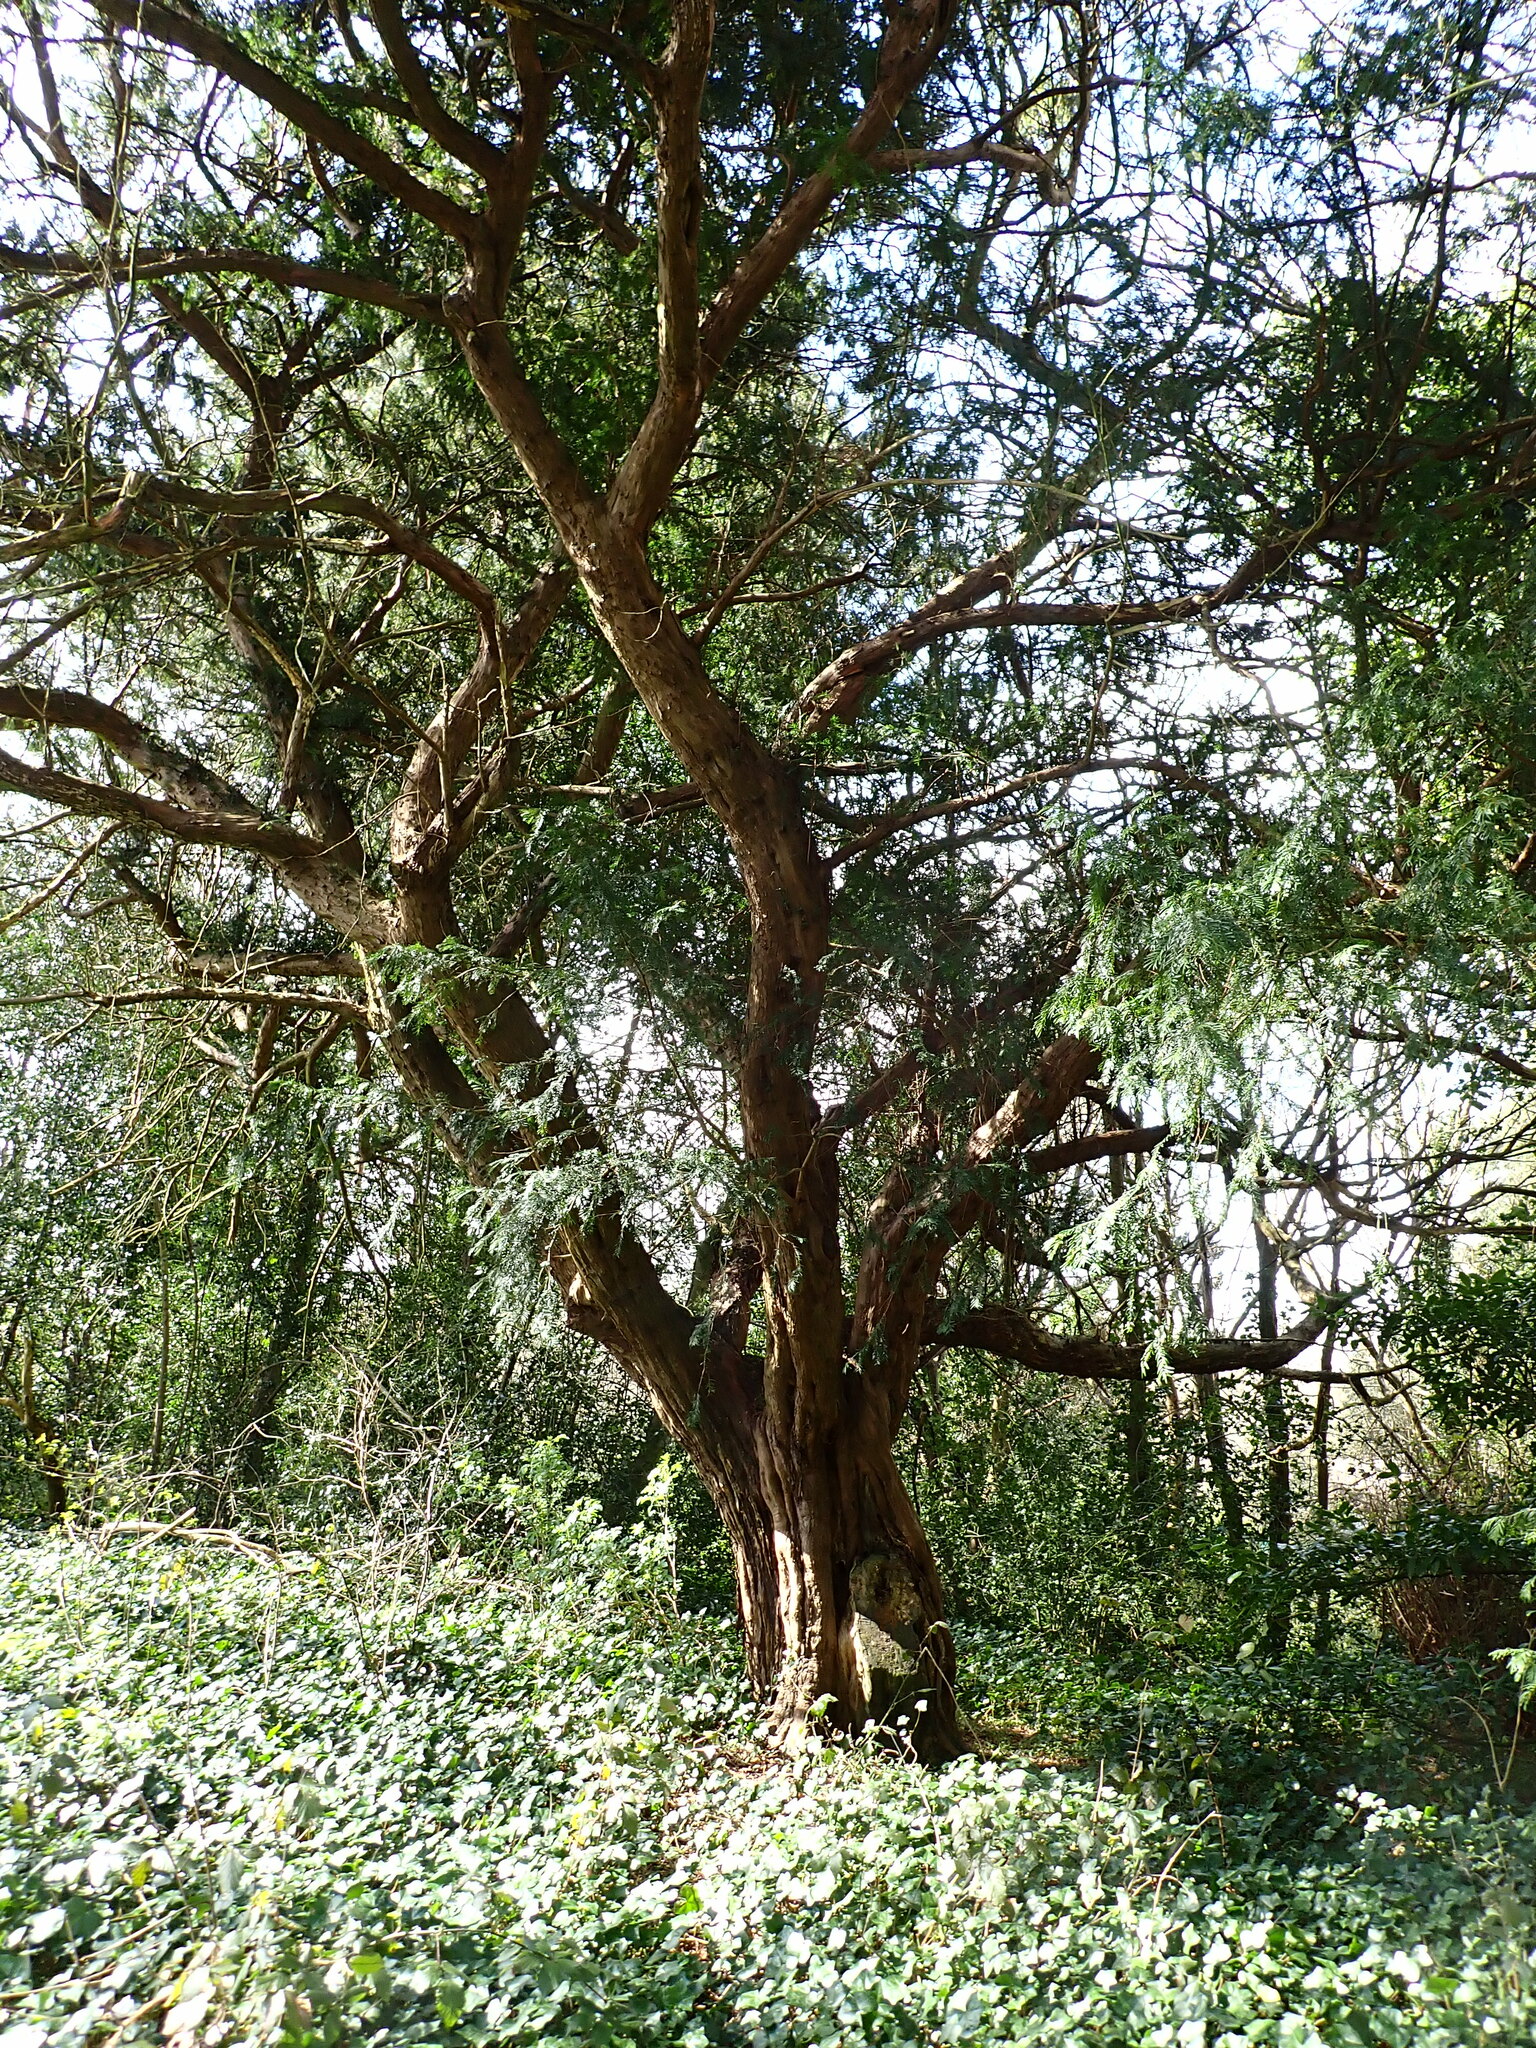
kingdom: Plantae
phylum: Tracheophyta
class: Pinopsida
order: Pinales
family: Taxaceae
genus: Taxus
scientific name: Taxus baccata
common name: Yew
